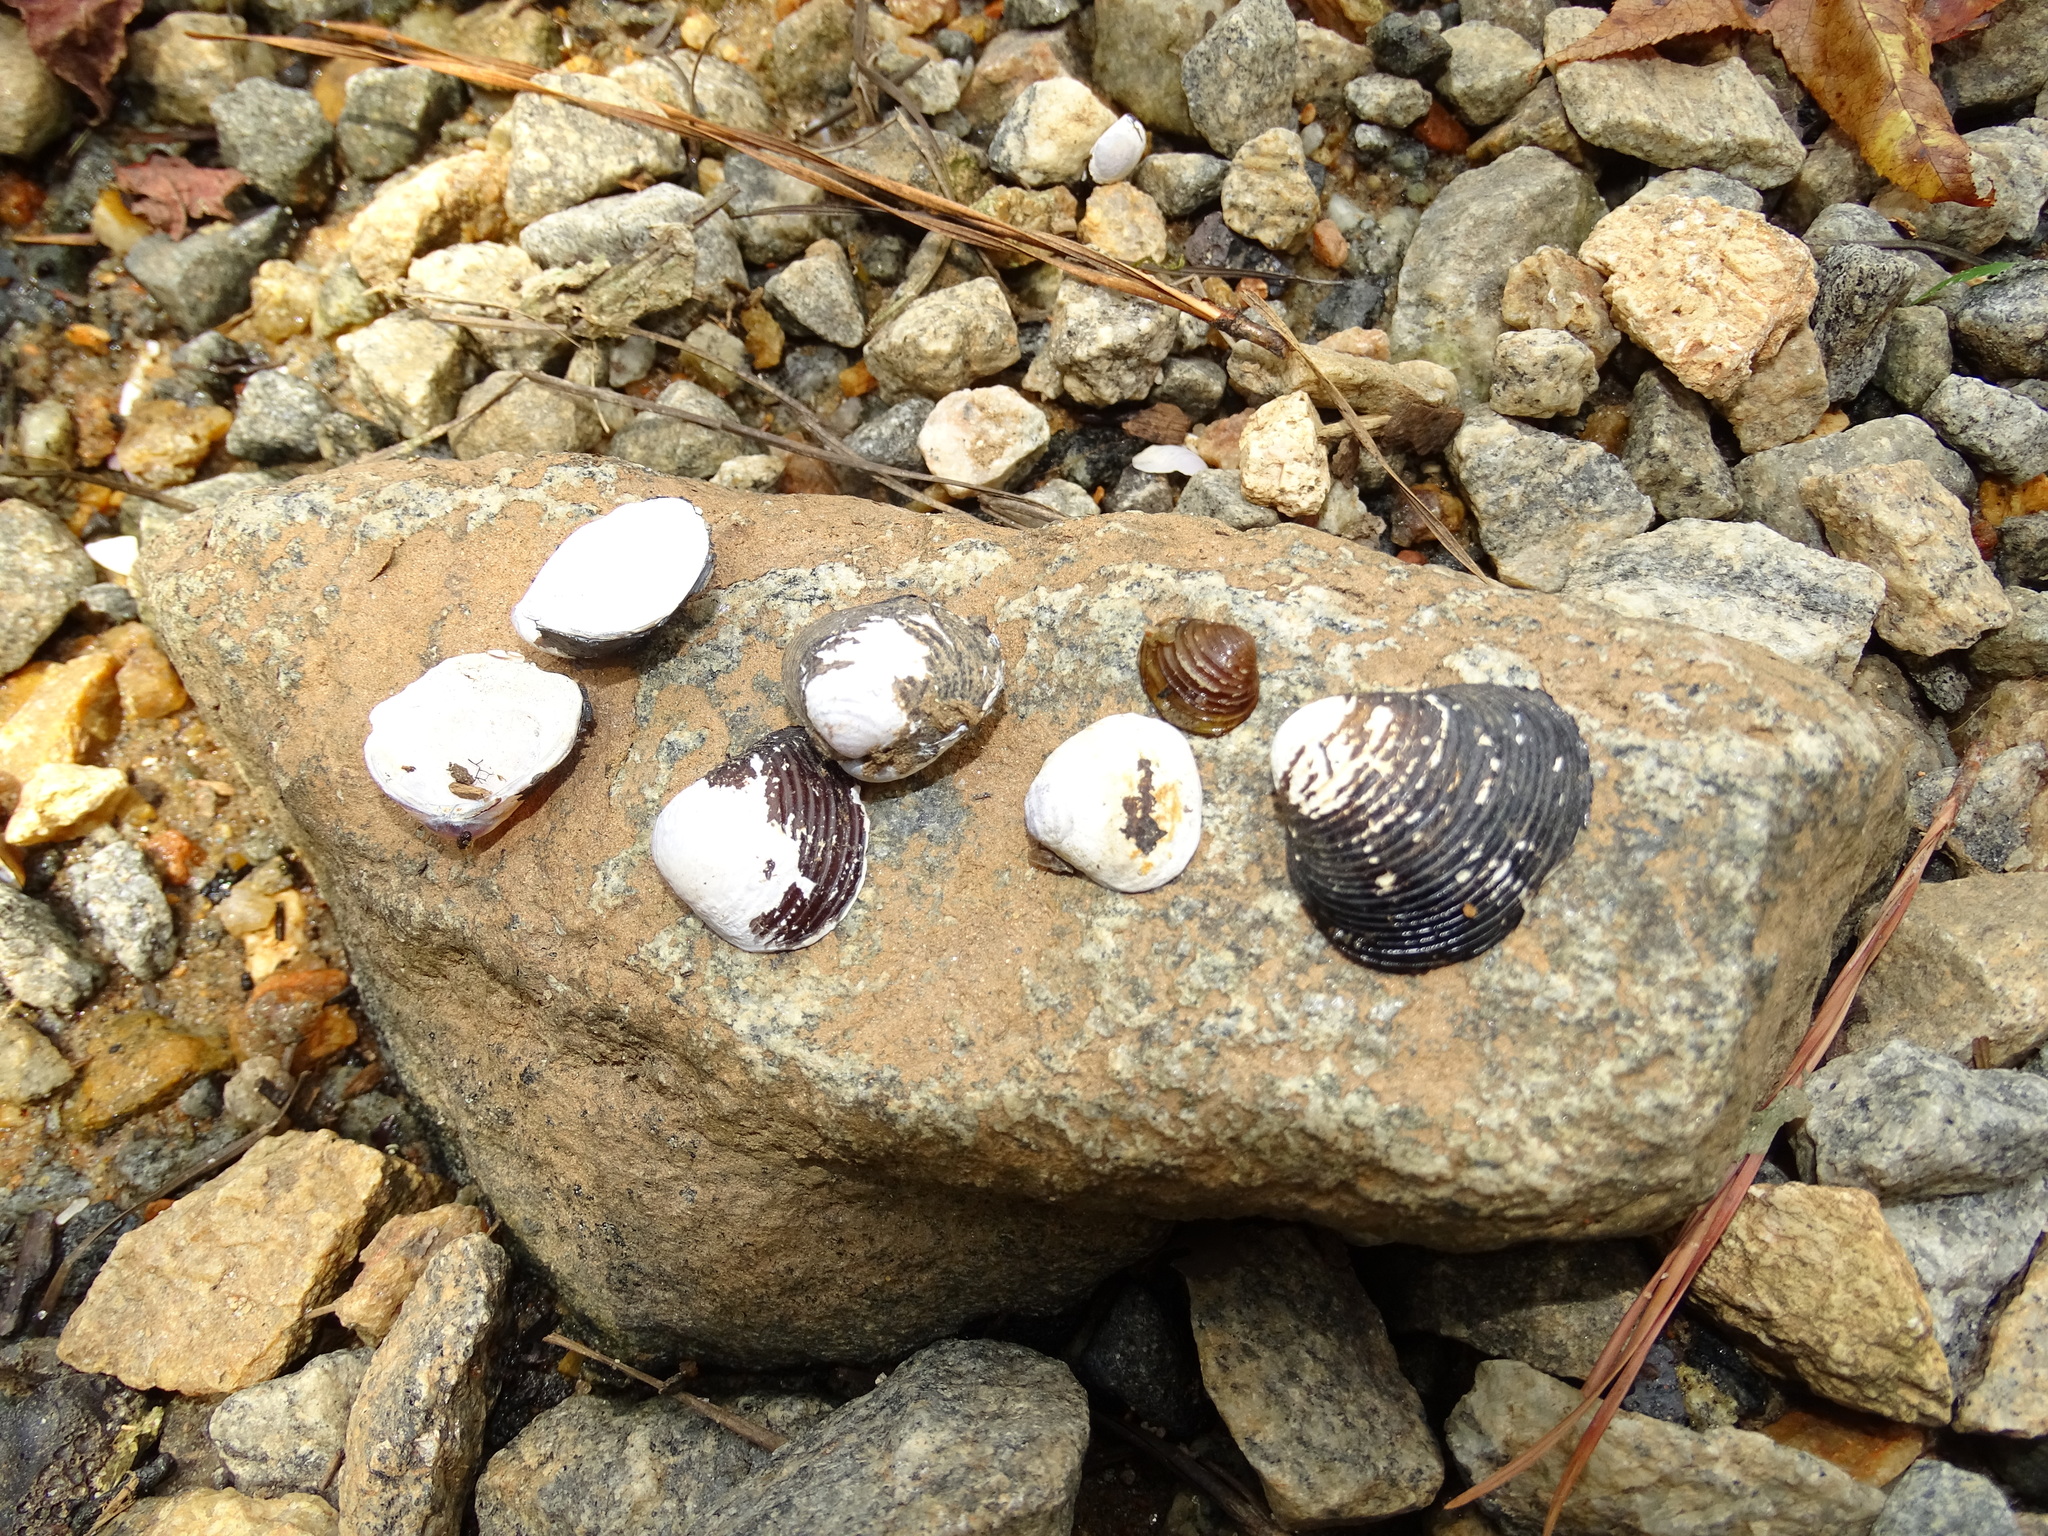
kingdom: Animalia
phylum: Mollusca
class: Bivalvia
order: Venerida
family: Cyrenidae
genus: Corbicula
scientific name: Corbicula fluminea
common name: Asian clam
